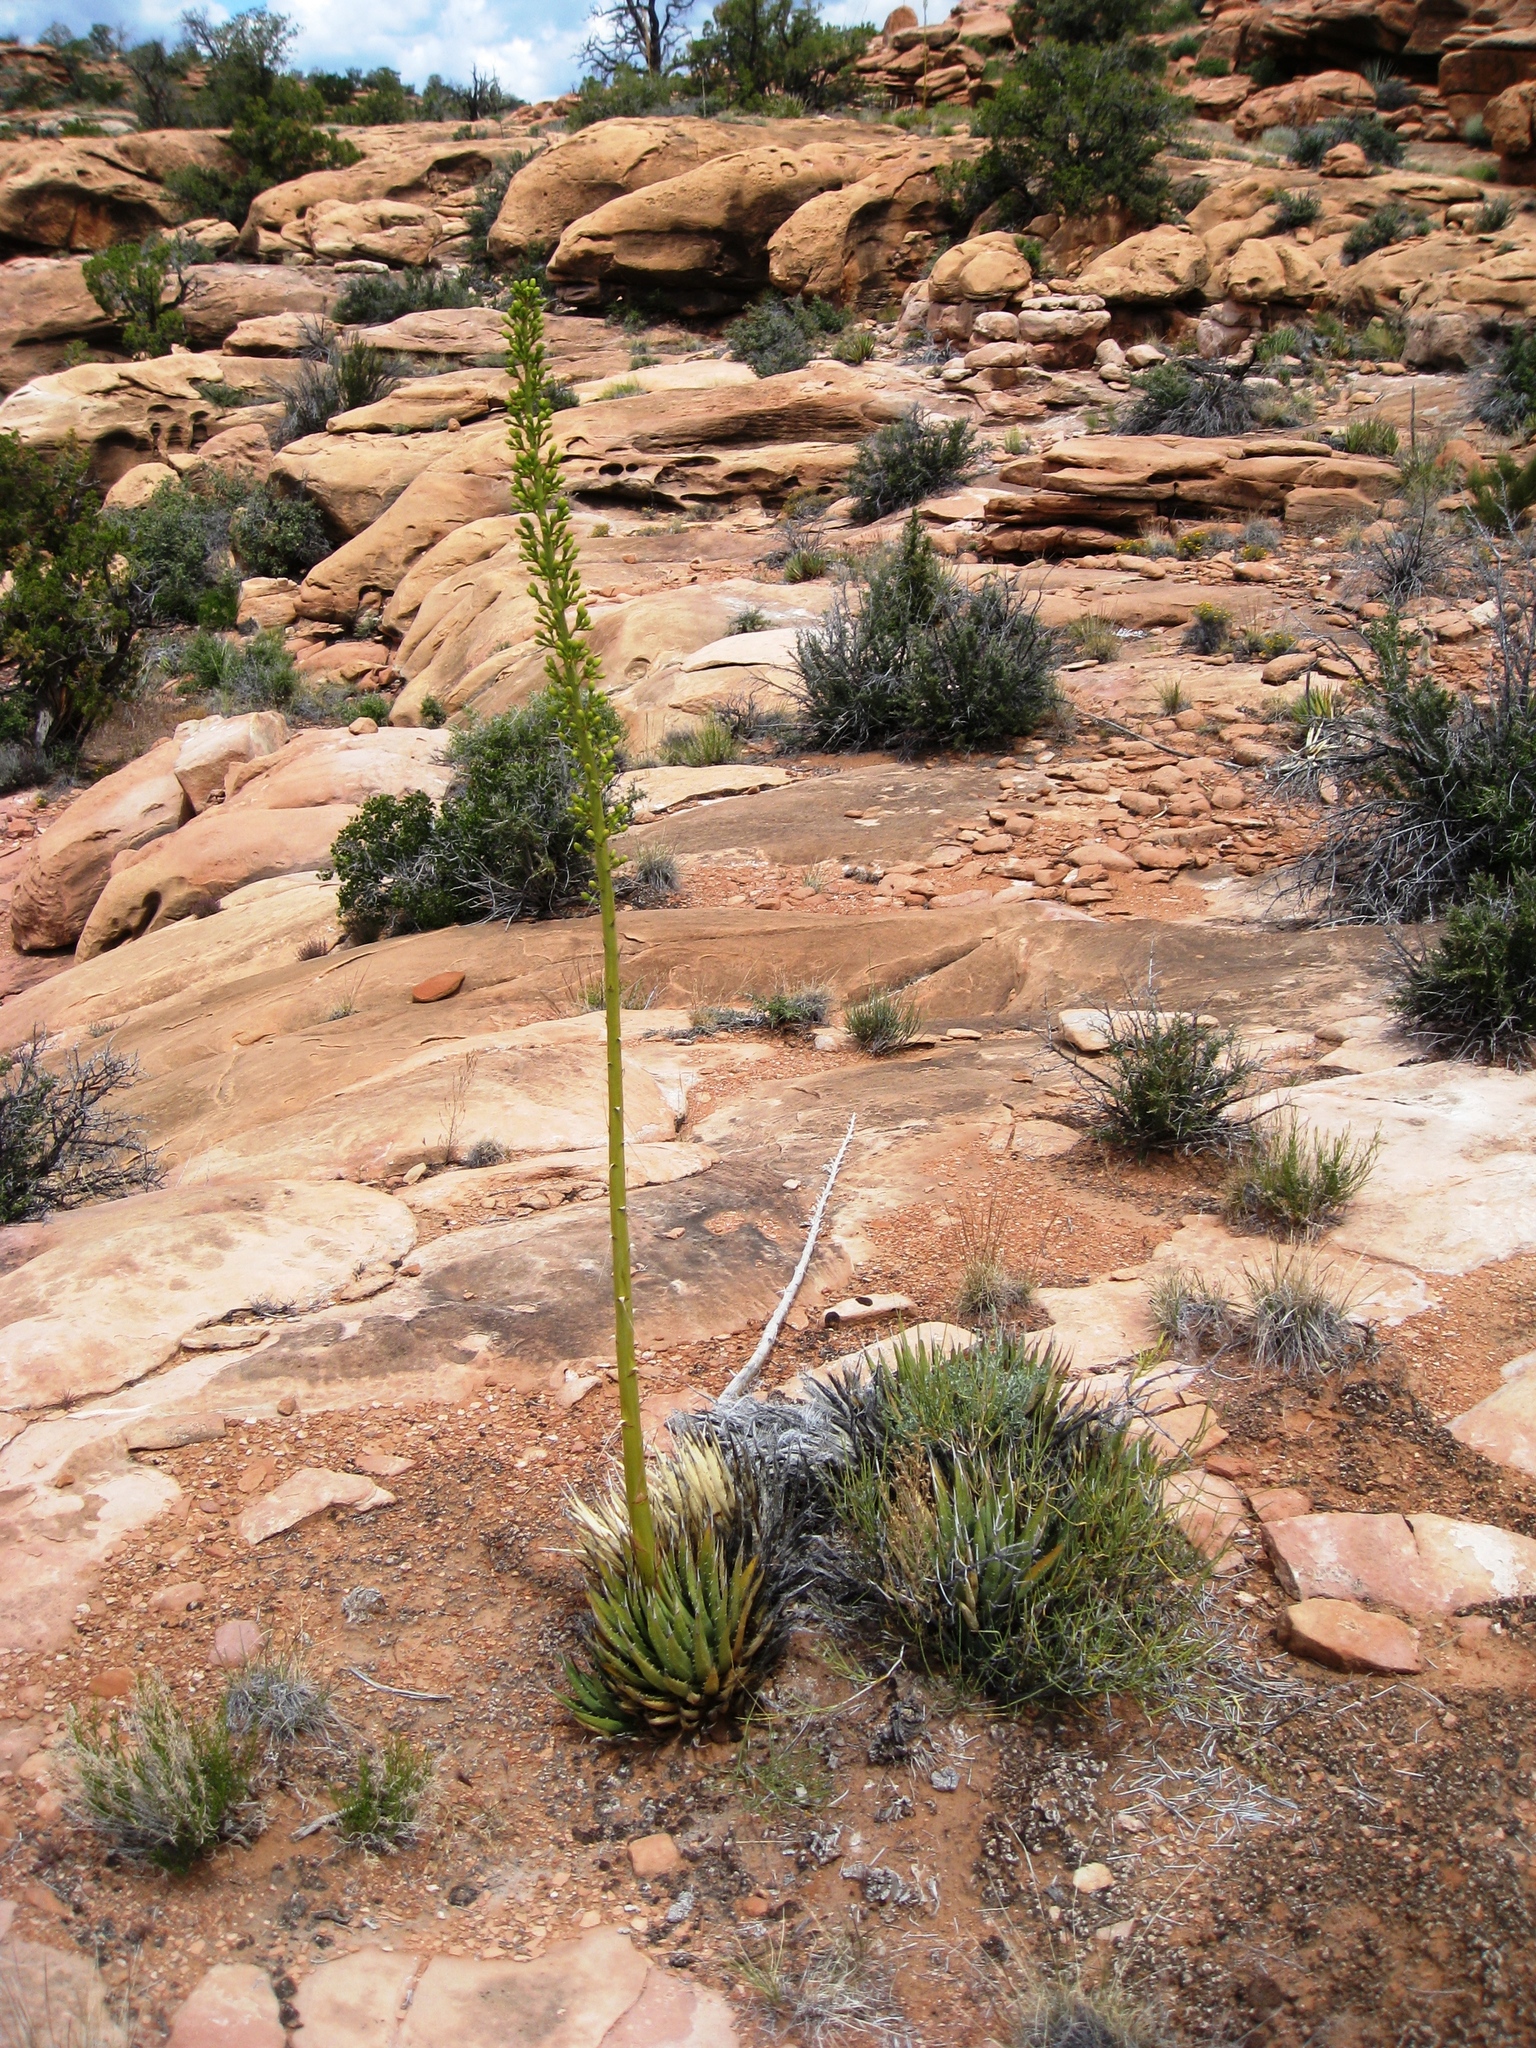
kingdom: Plantae
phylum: Tracheophyta
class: Liliopsida
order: Asparagales
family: Asparagaceae
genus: Agave
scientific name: Agave utahensis
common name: Utah agave
